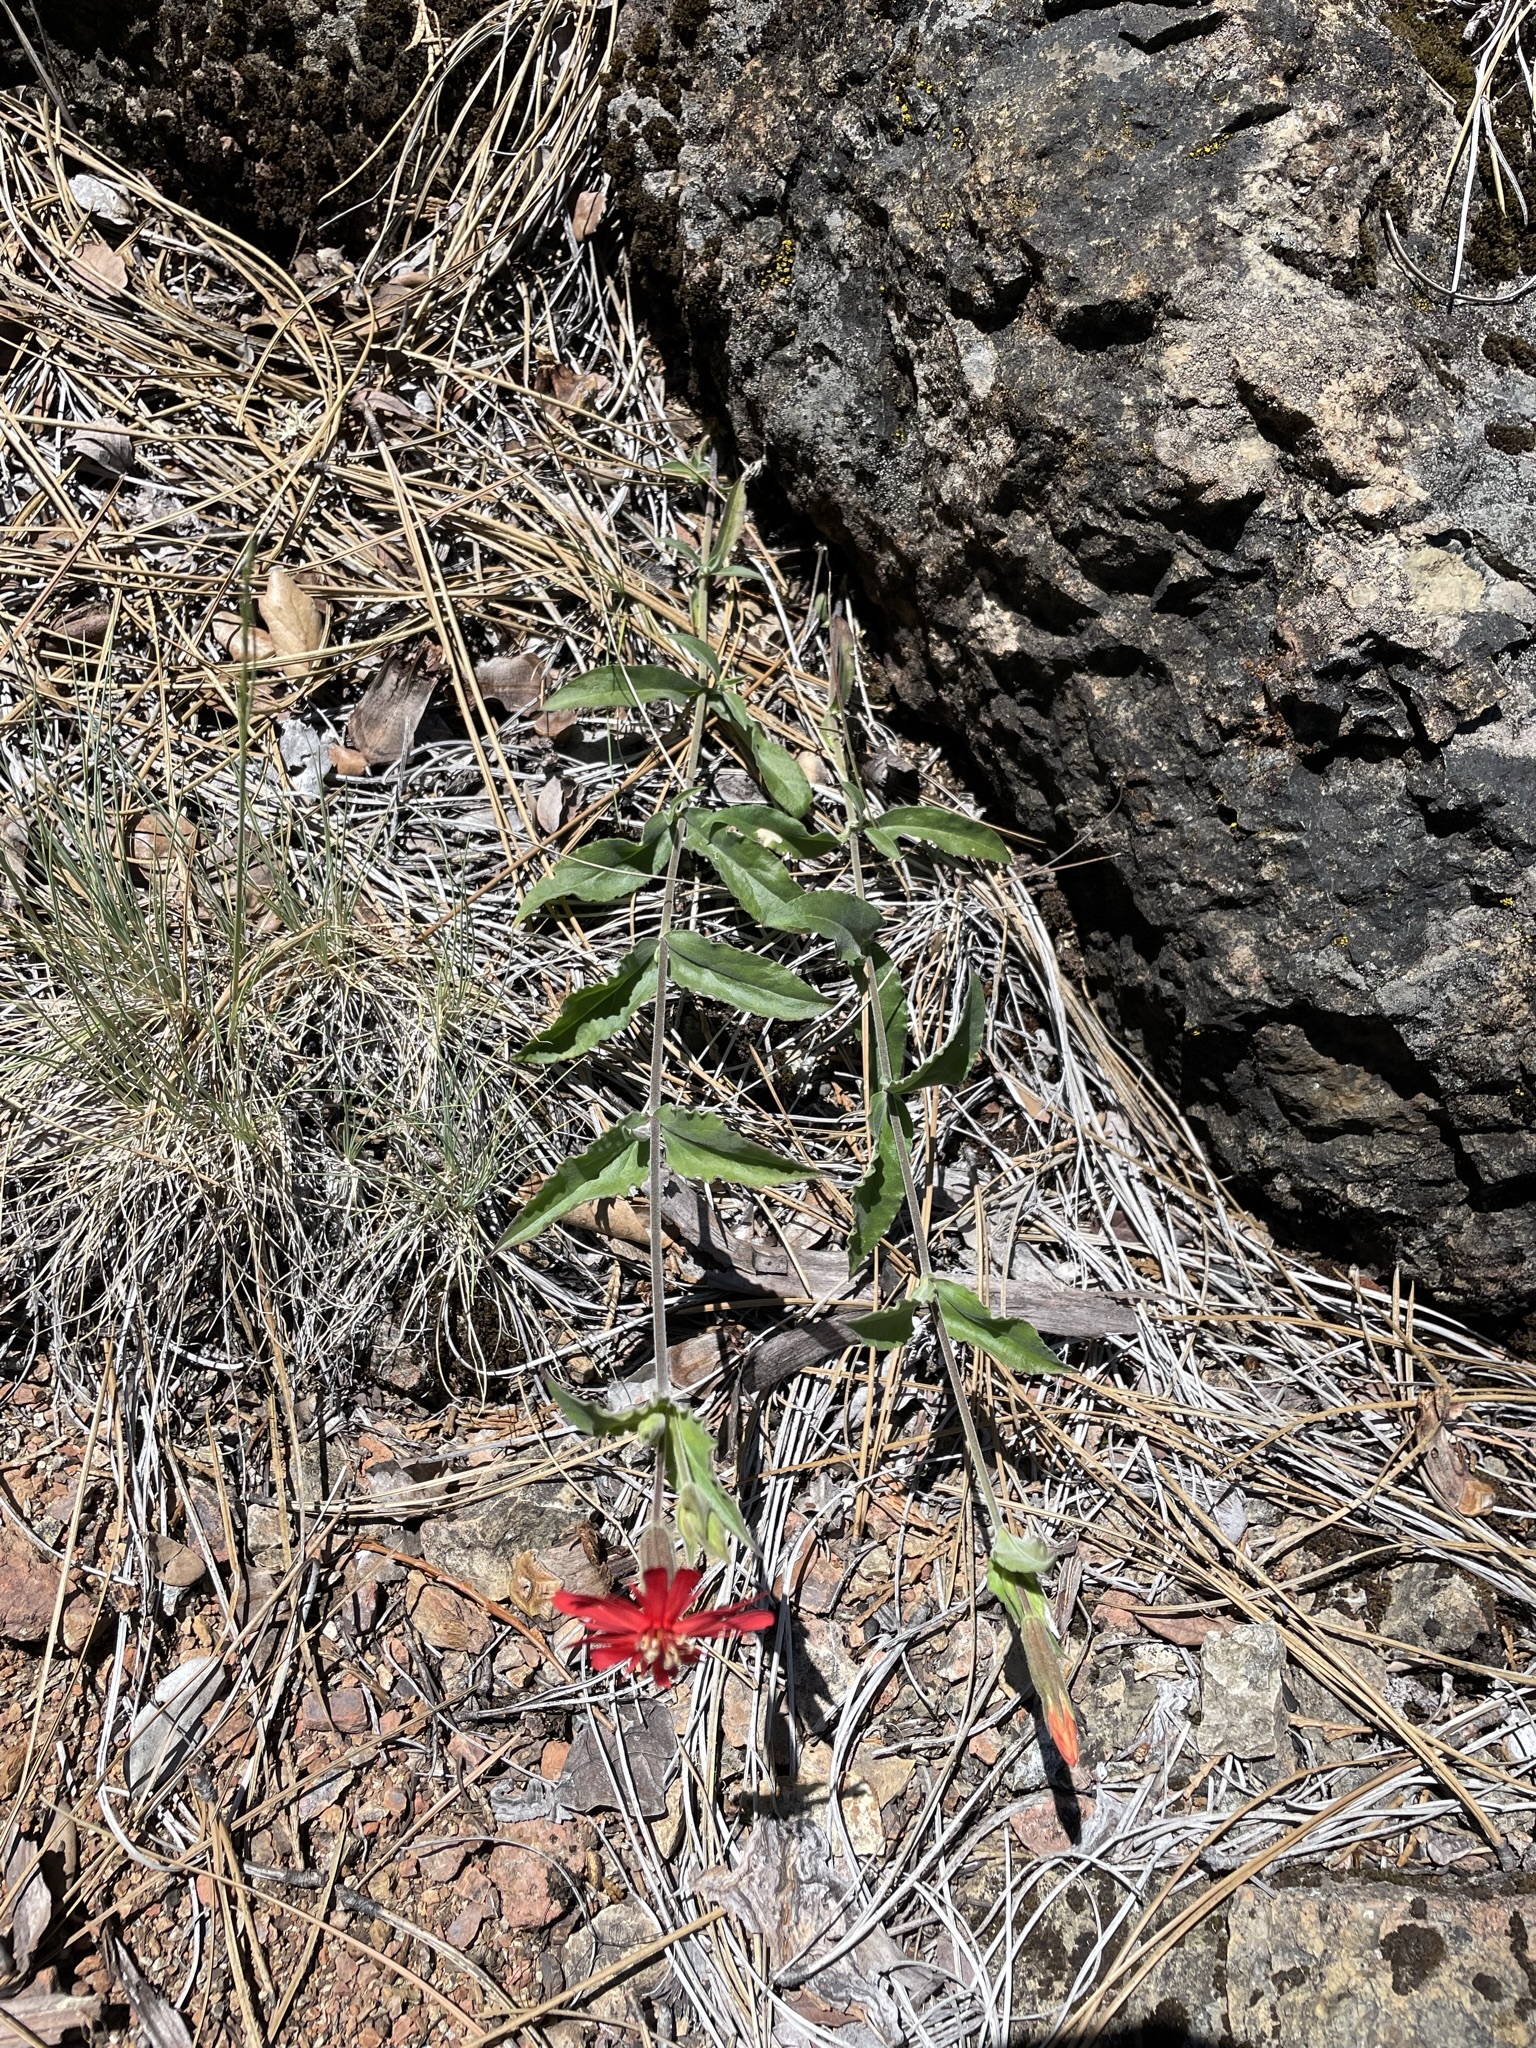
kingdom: Plantae
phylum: Tracheophyta
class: Magnoliopsida
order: Caryophyllales
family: Caryophyllaceae
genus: Silene
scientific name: Silene laciniata
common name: Indian-pink
